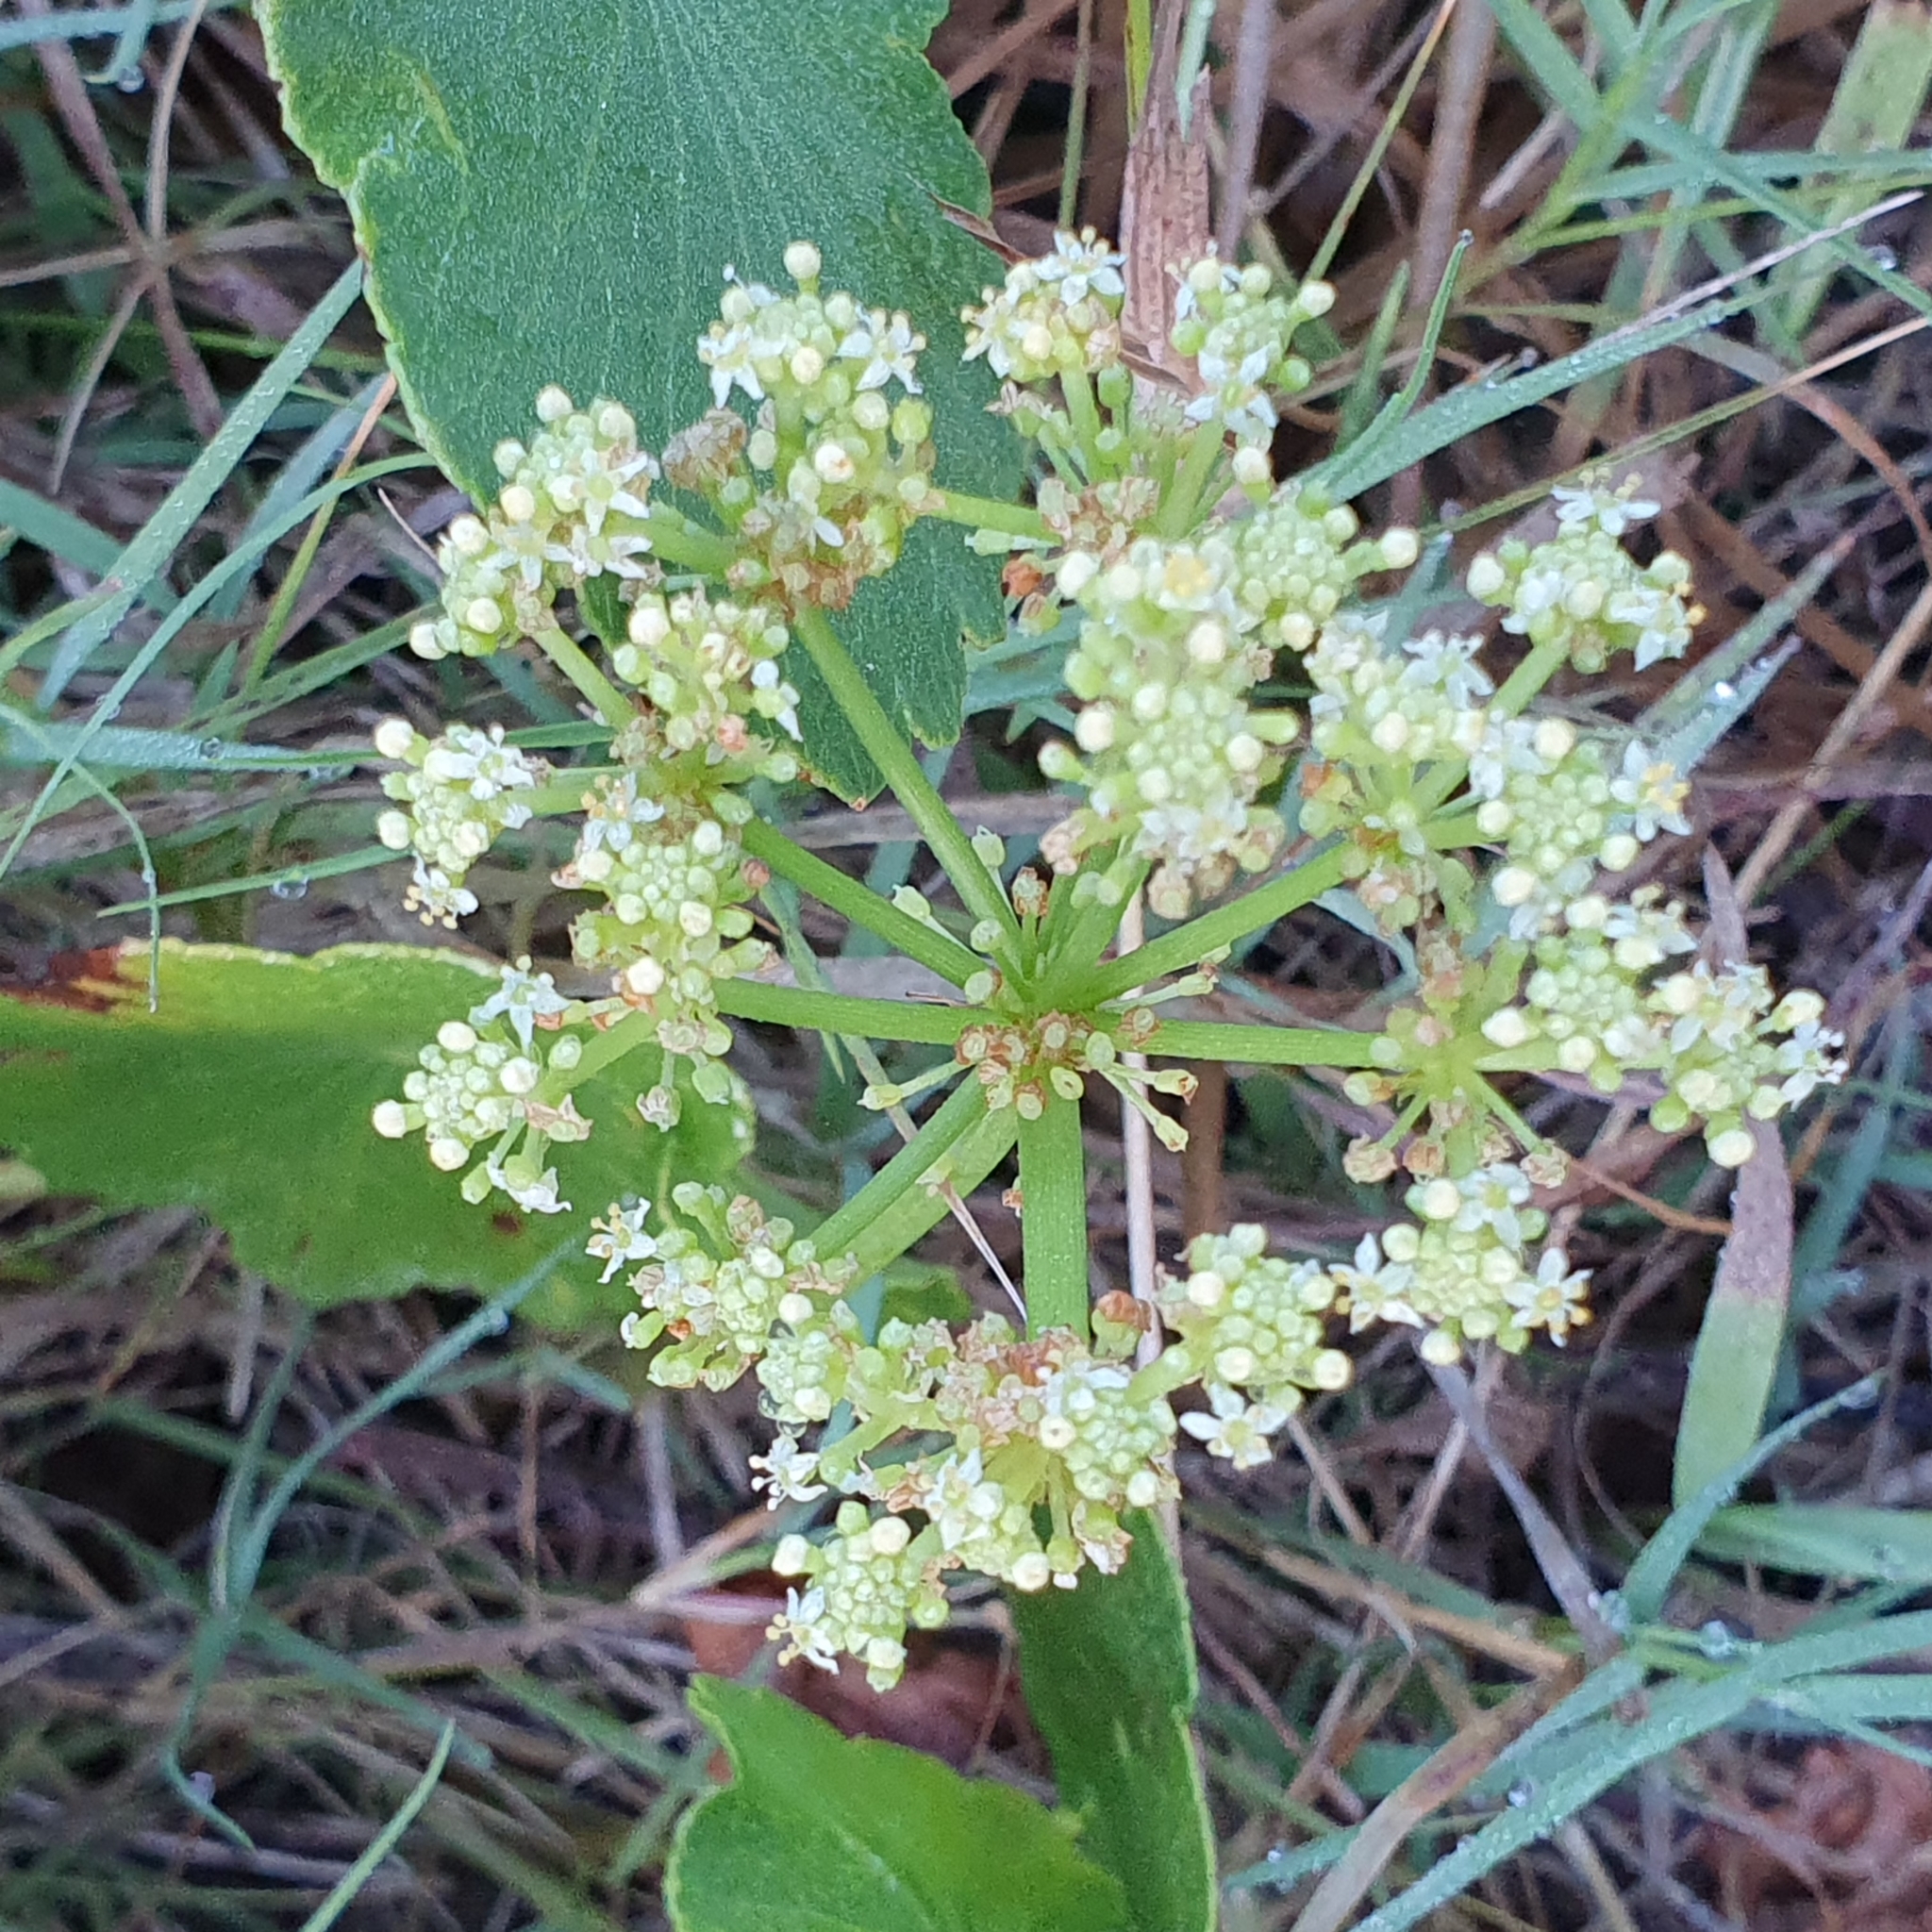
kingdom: Plantae
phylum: Tracheophyta
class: Magnoliopsida
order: Apiales
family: Araliaceae
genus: Hydrocotyle
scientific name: Hydrocotyle bonariensis
